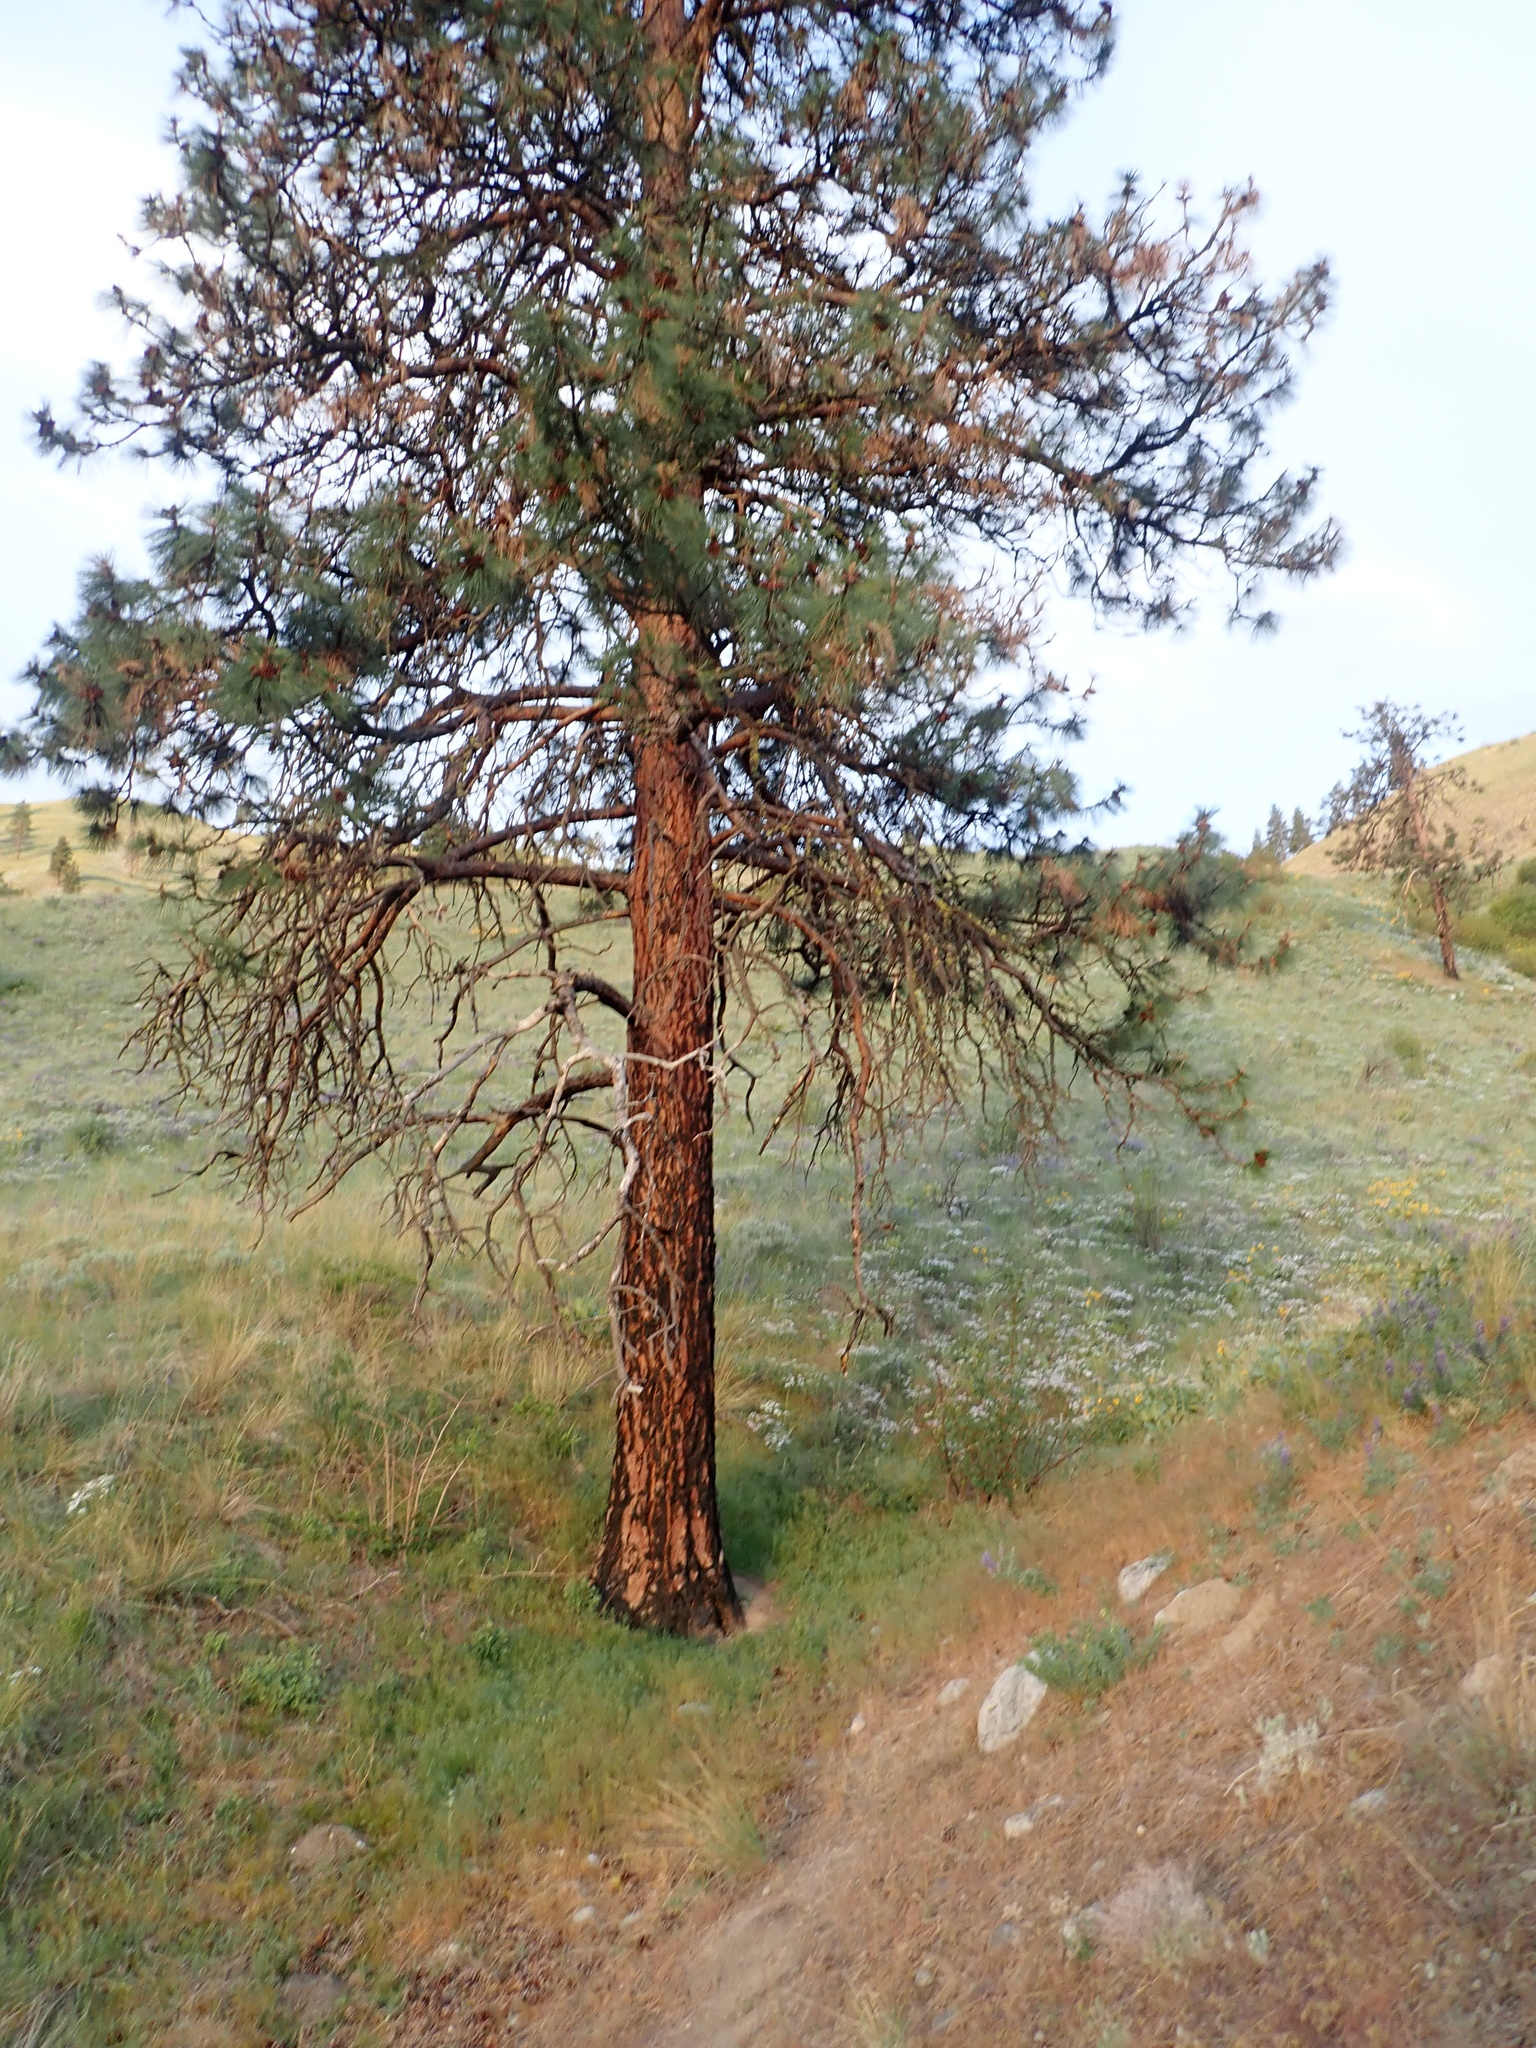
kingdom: Plantae
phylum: Tracheophyta
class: Pinopsida
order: Pinales
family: Pinaceae
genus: Pinus
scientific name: Pinus ponderosa
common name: Western yellow-pine
